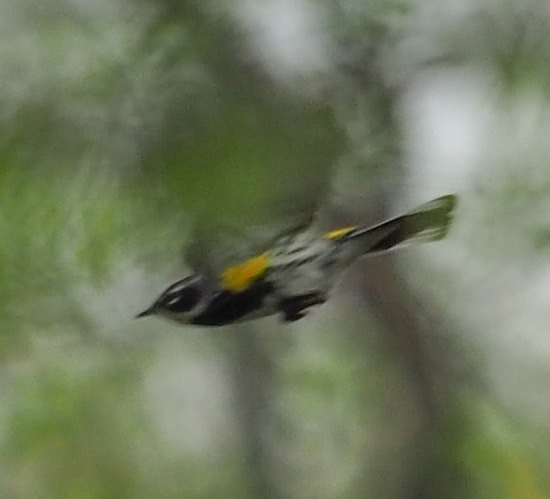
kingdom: Animalia
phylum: Chordata
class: Aves
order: Passeriformes
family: Parulidae
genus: Setophaga
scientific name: Setophaga coronata
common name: Myrtle warbler
